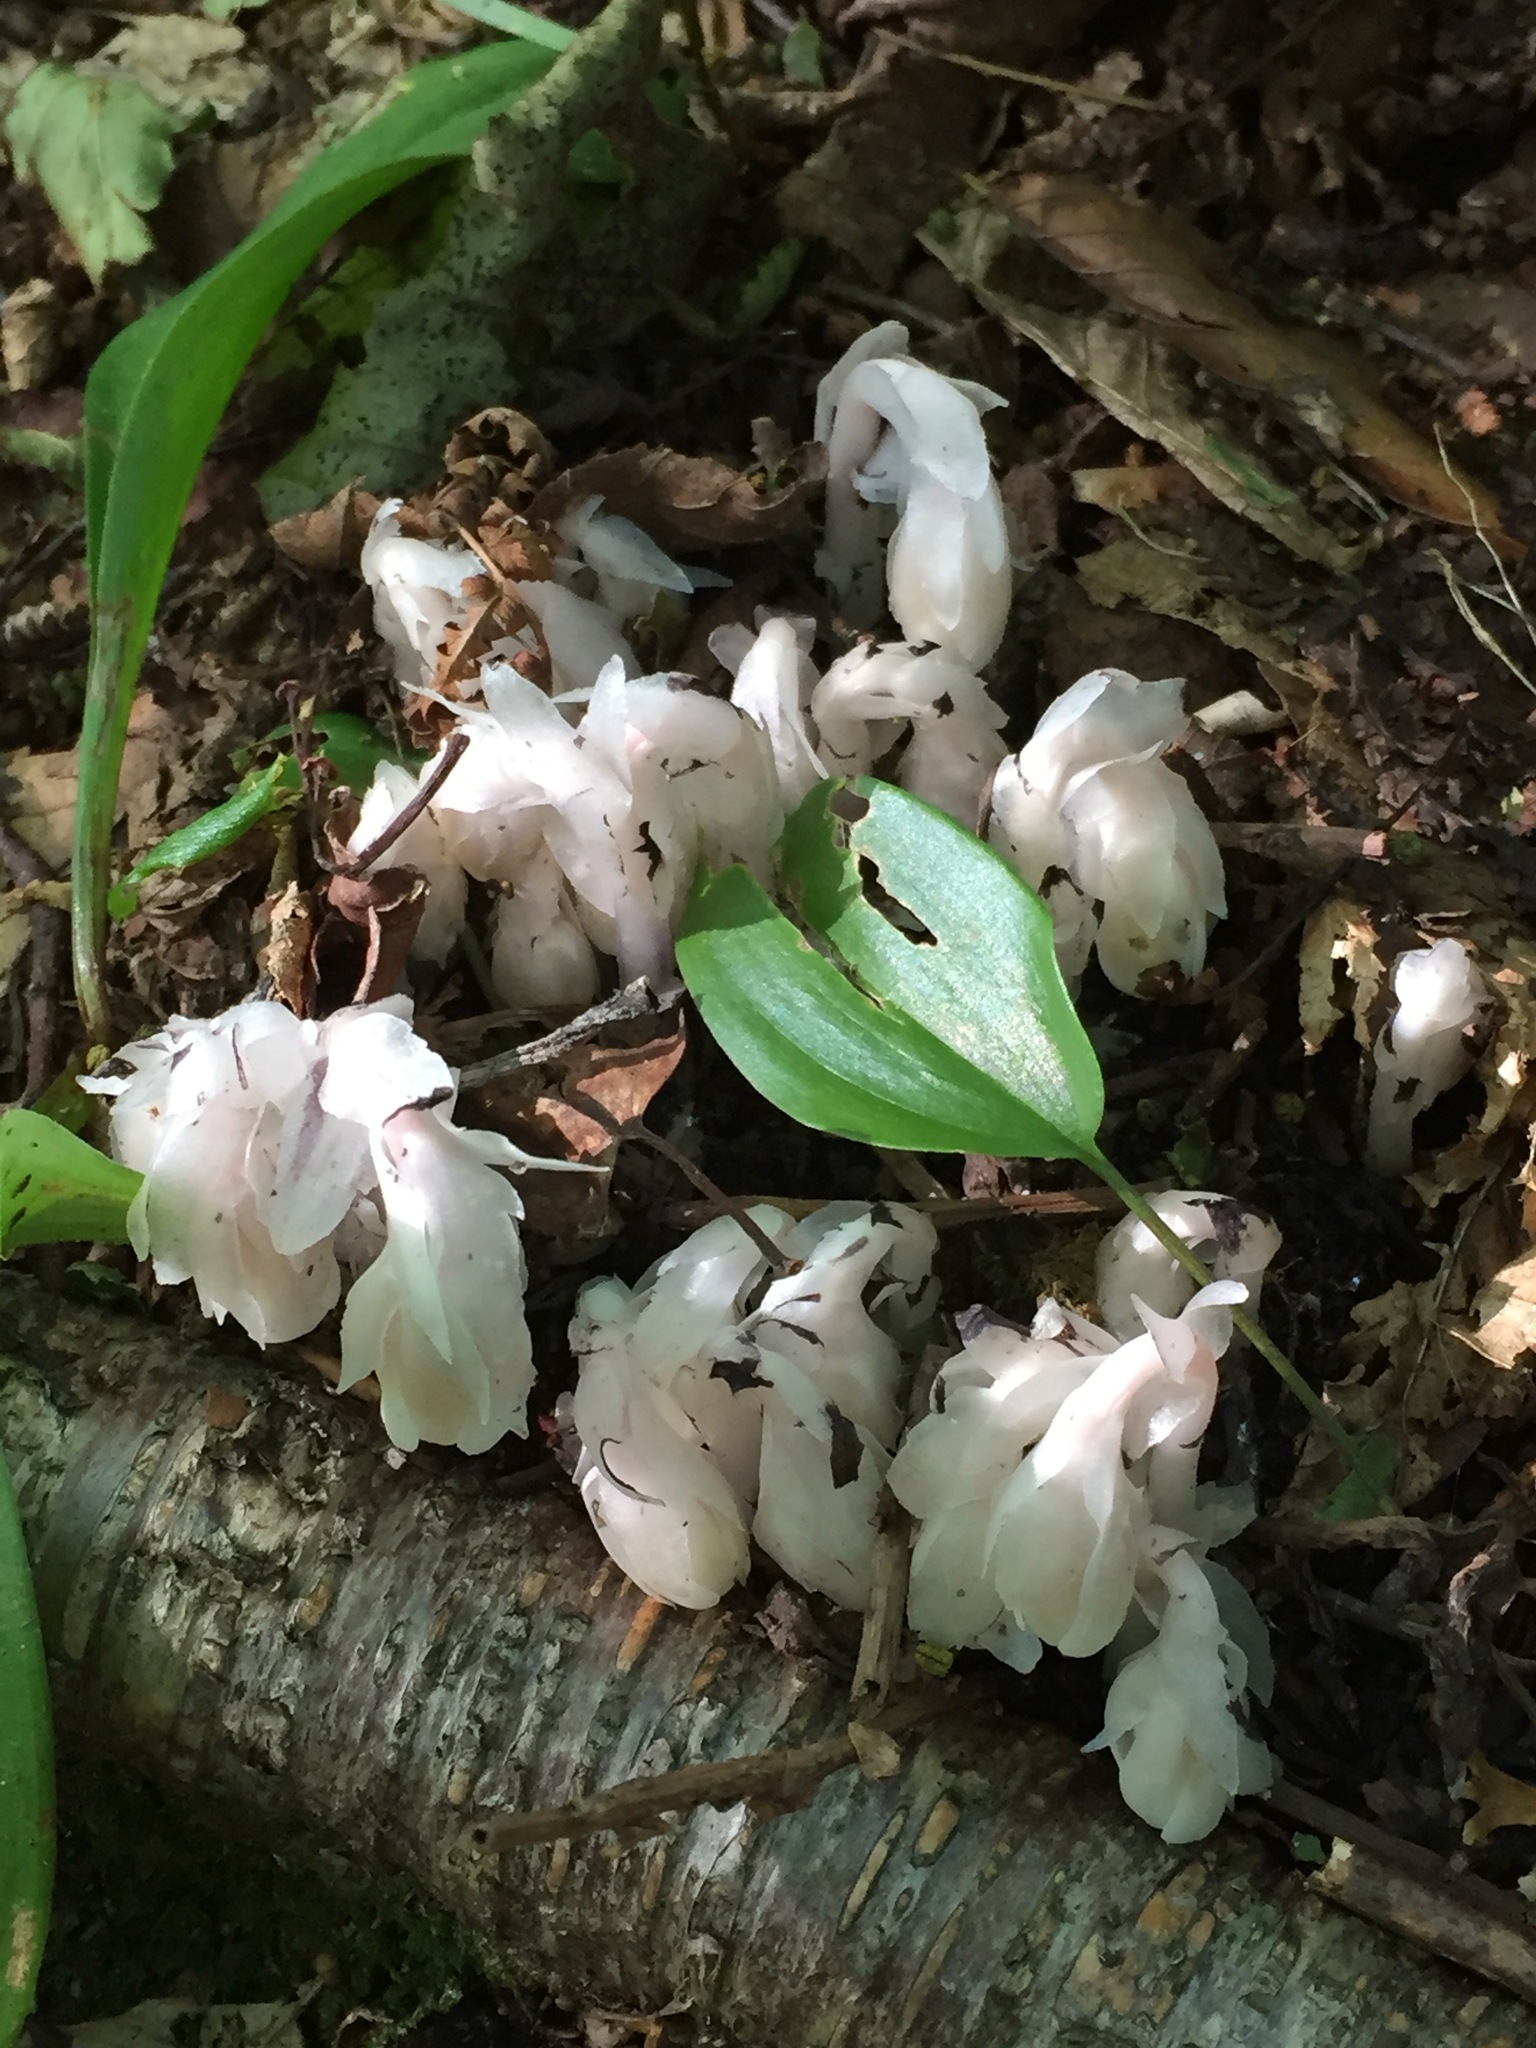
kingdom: Plantae
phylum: Tracheophyta
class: Magnoliopsida
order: Ericales
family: Ericaceae
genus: Monotropa
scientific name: Monotropa uniflora
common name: Convulsion root
